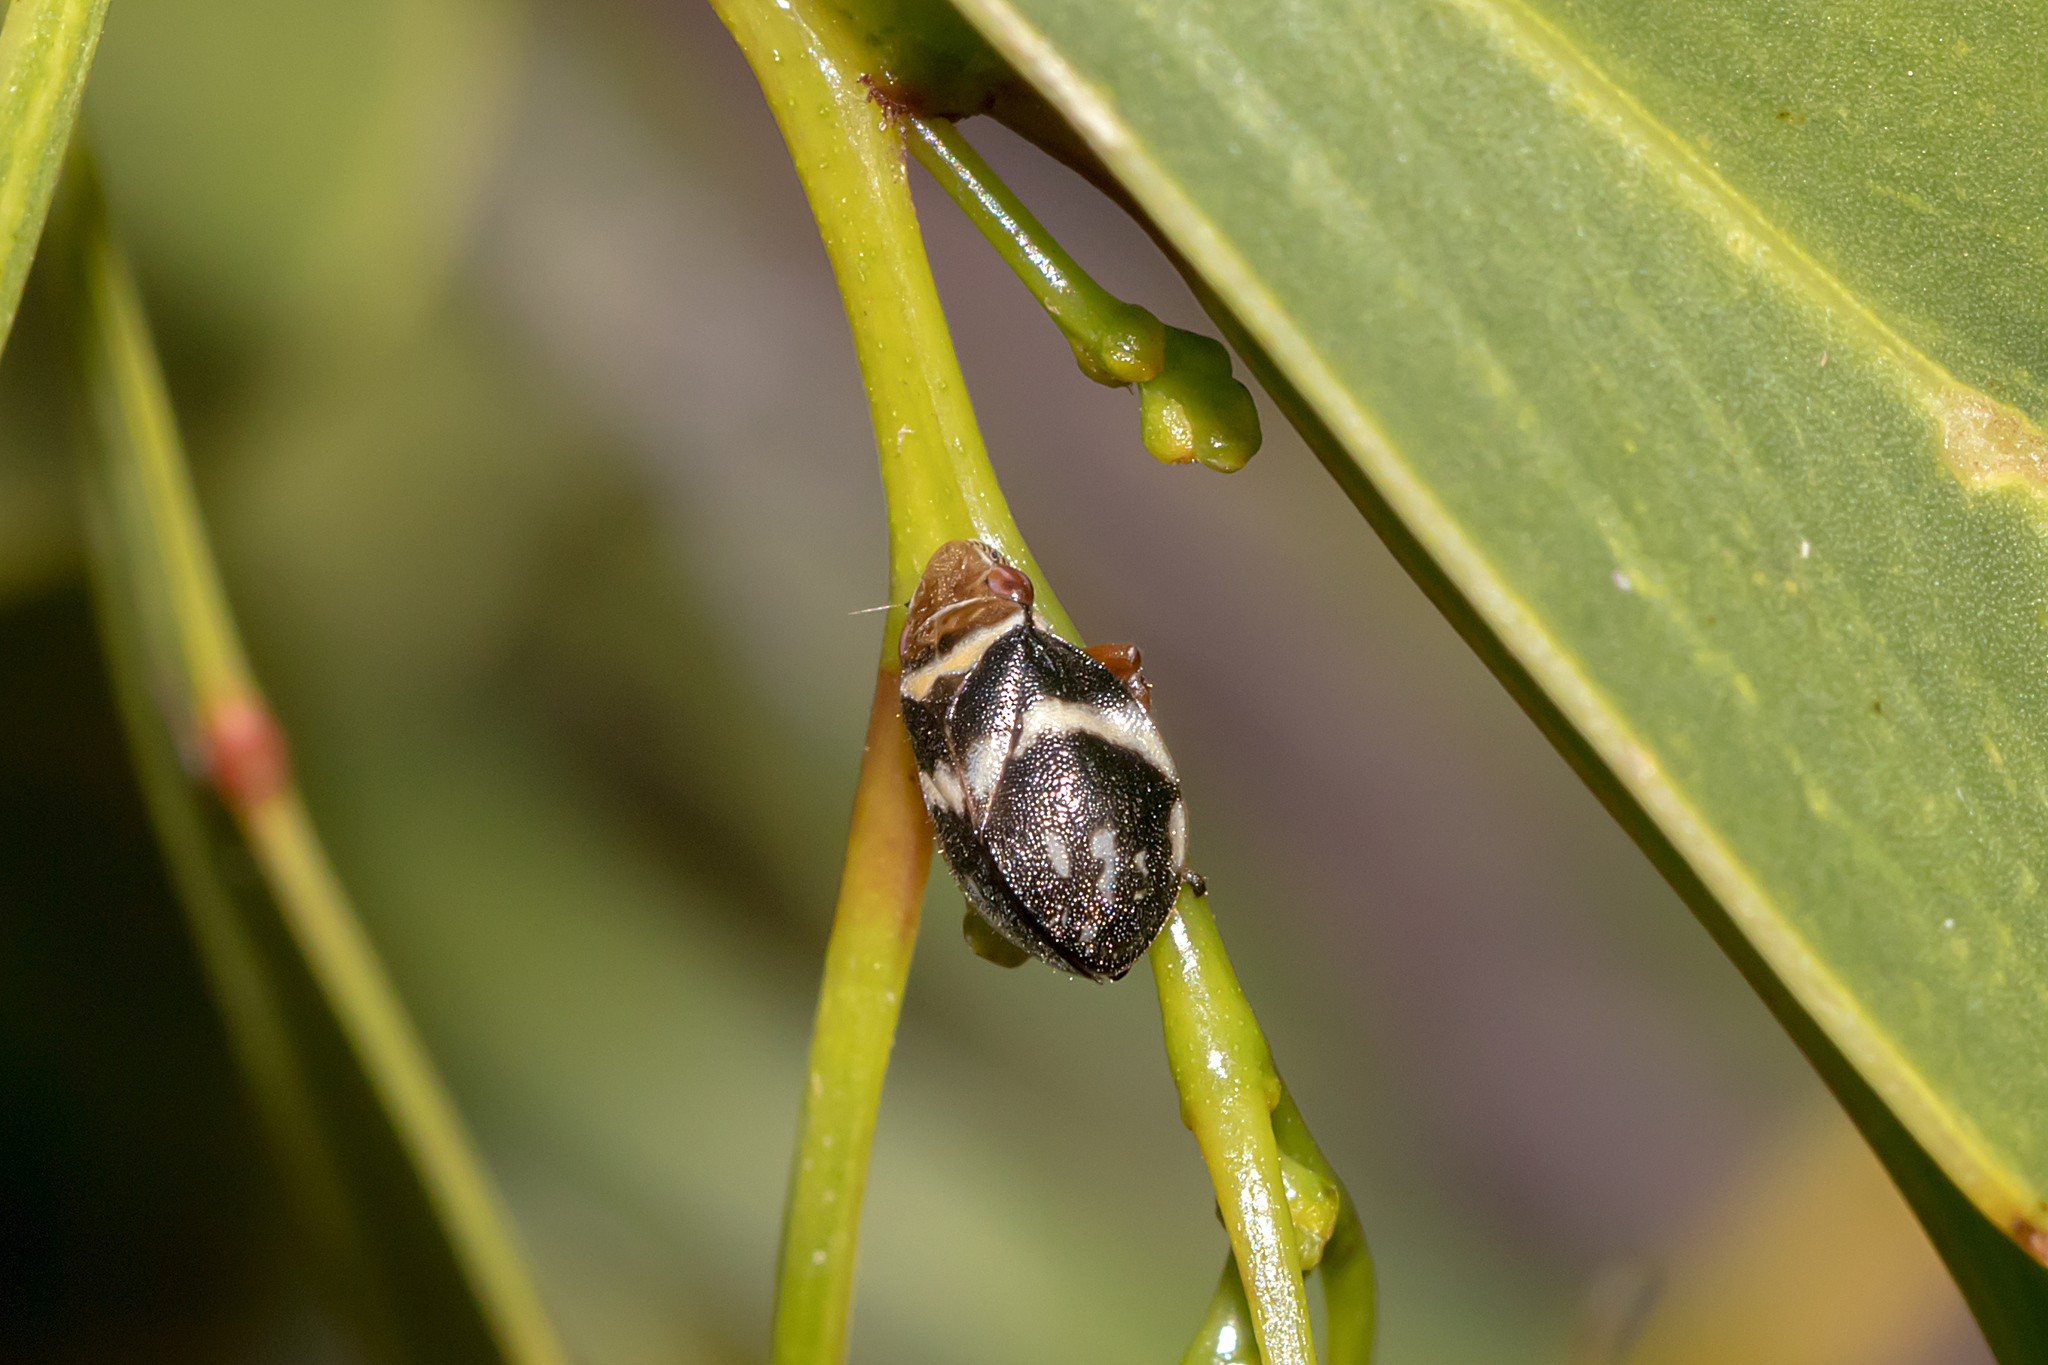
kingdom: Animalia
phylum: Arthropoda
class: Insecta
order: Hemiptera
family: Aphrophoridae
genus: Bathyllus
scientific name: Bathyllus albicinctus
